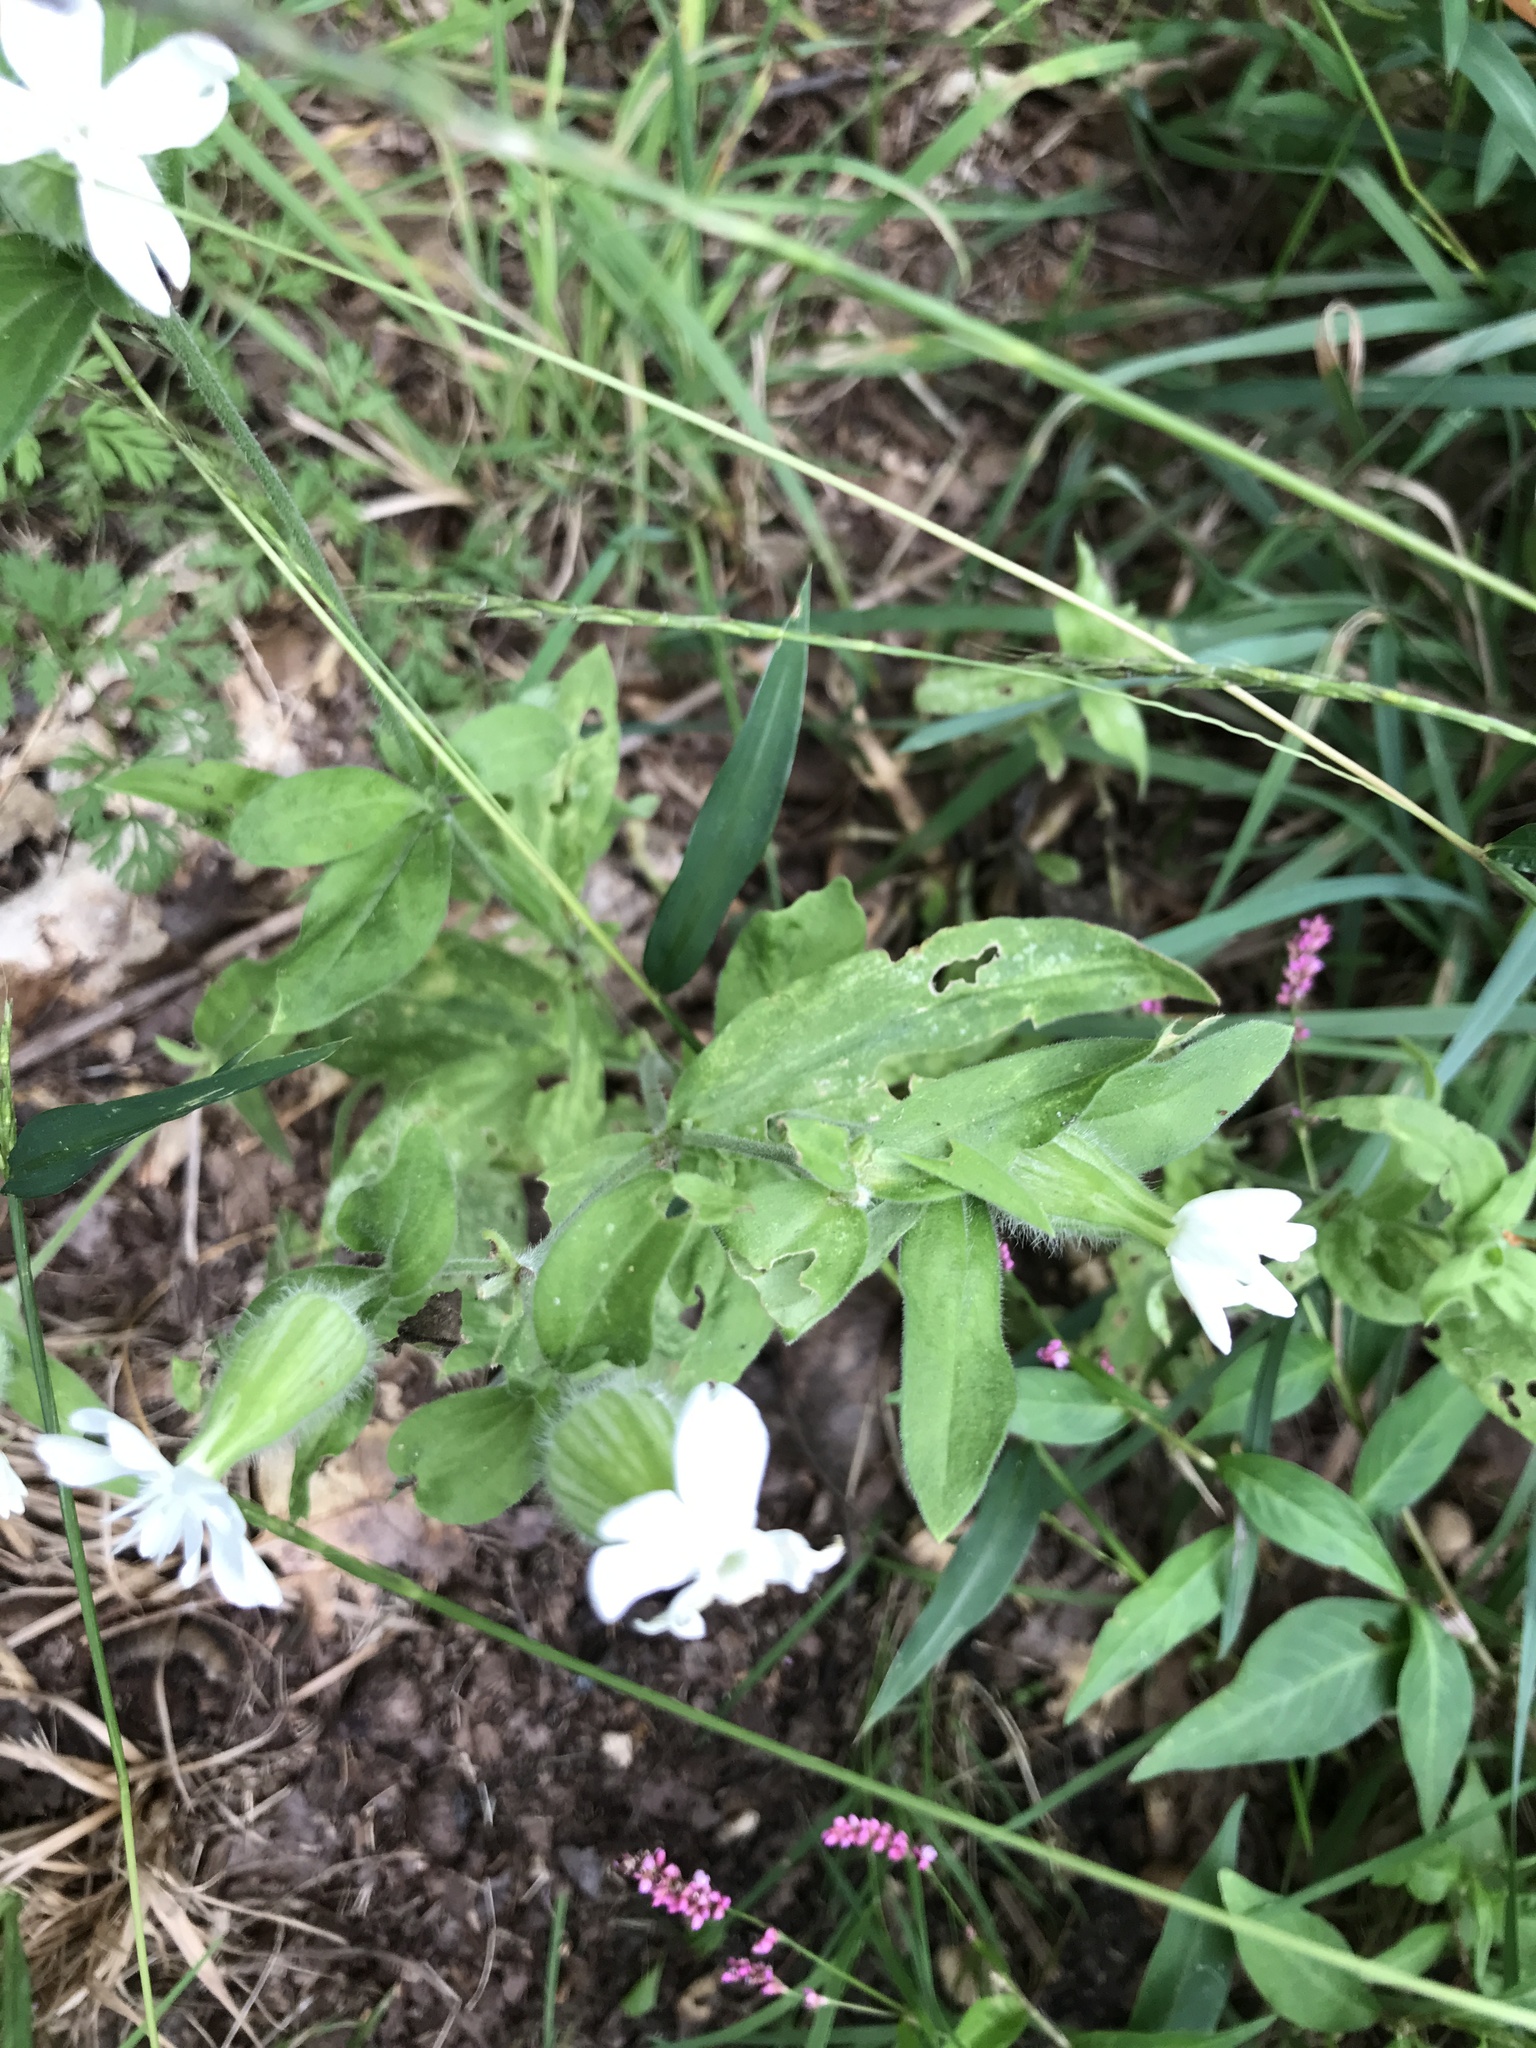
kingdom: Plantae
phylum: Tracheophyta
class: Magnoliopsida
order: Caryophyllales
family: Caryophyllaceae
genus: Silene
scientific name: Silene latifolia
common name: White campion
